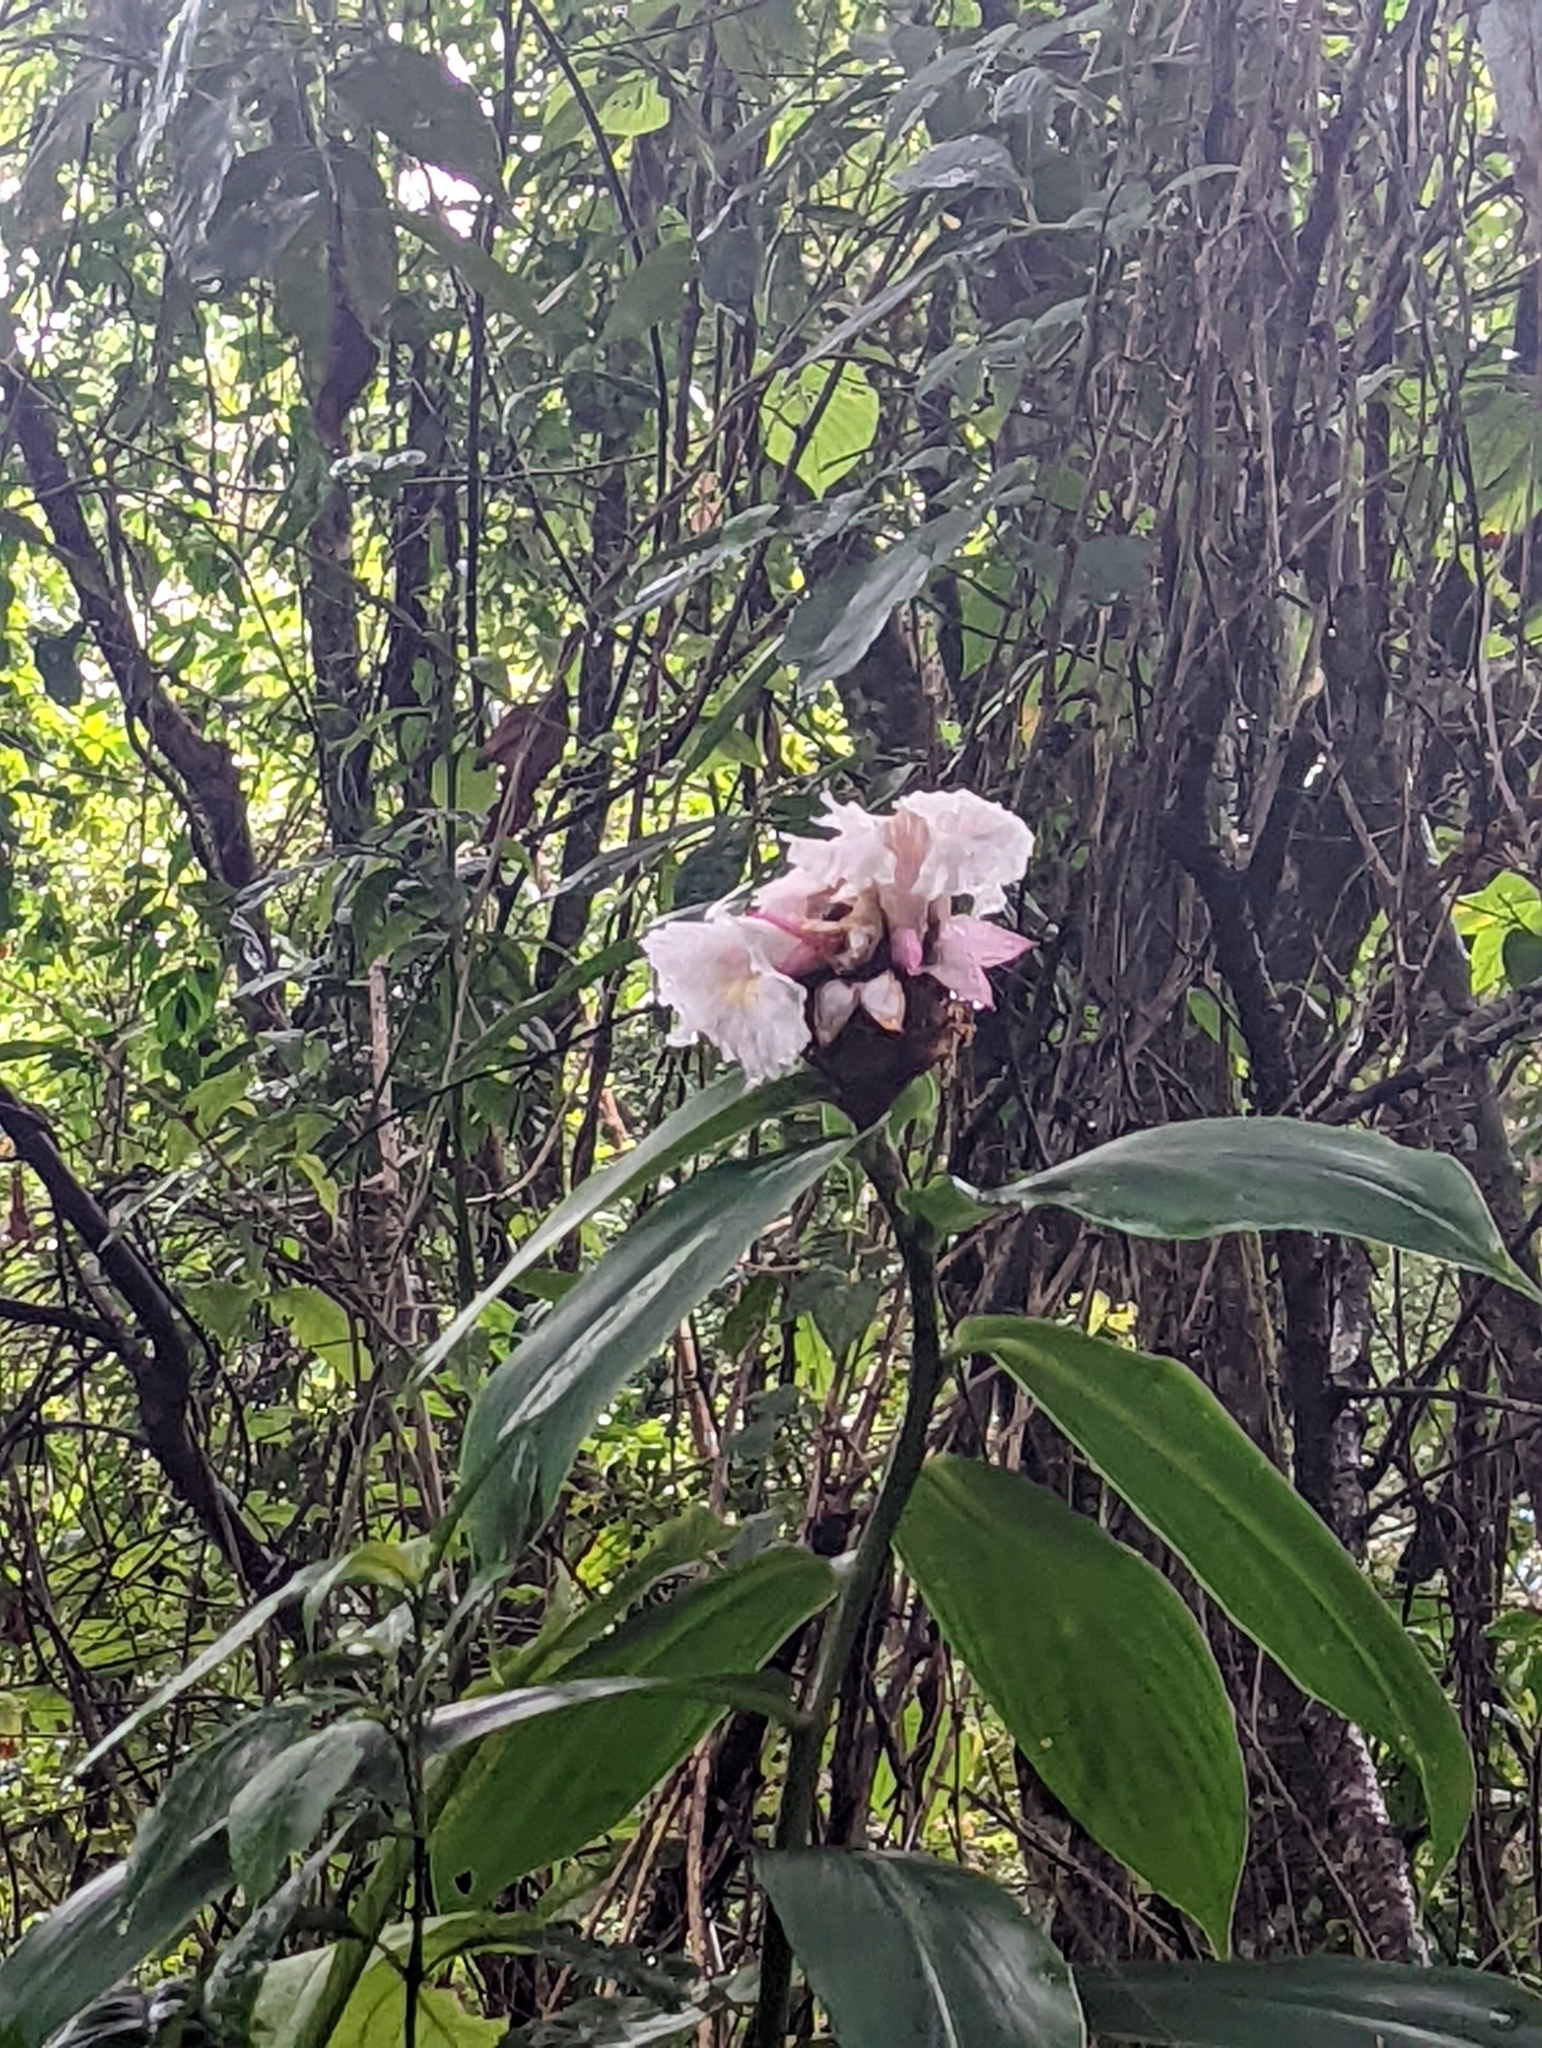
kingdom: Plantae
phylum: Tracheophyta
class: Liliopsida
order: Zingiberales
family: Costaceae
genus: Hellenia
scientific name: Hellenia speciosa
